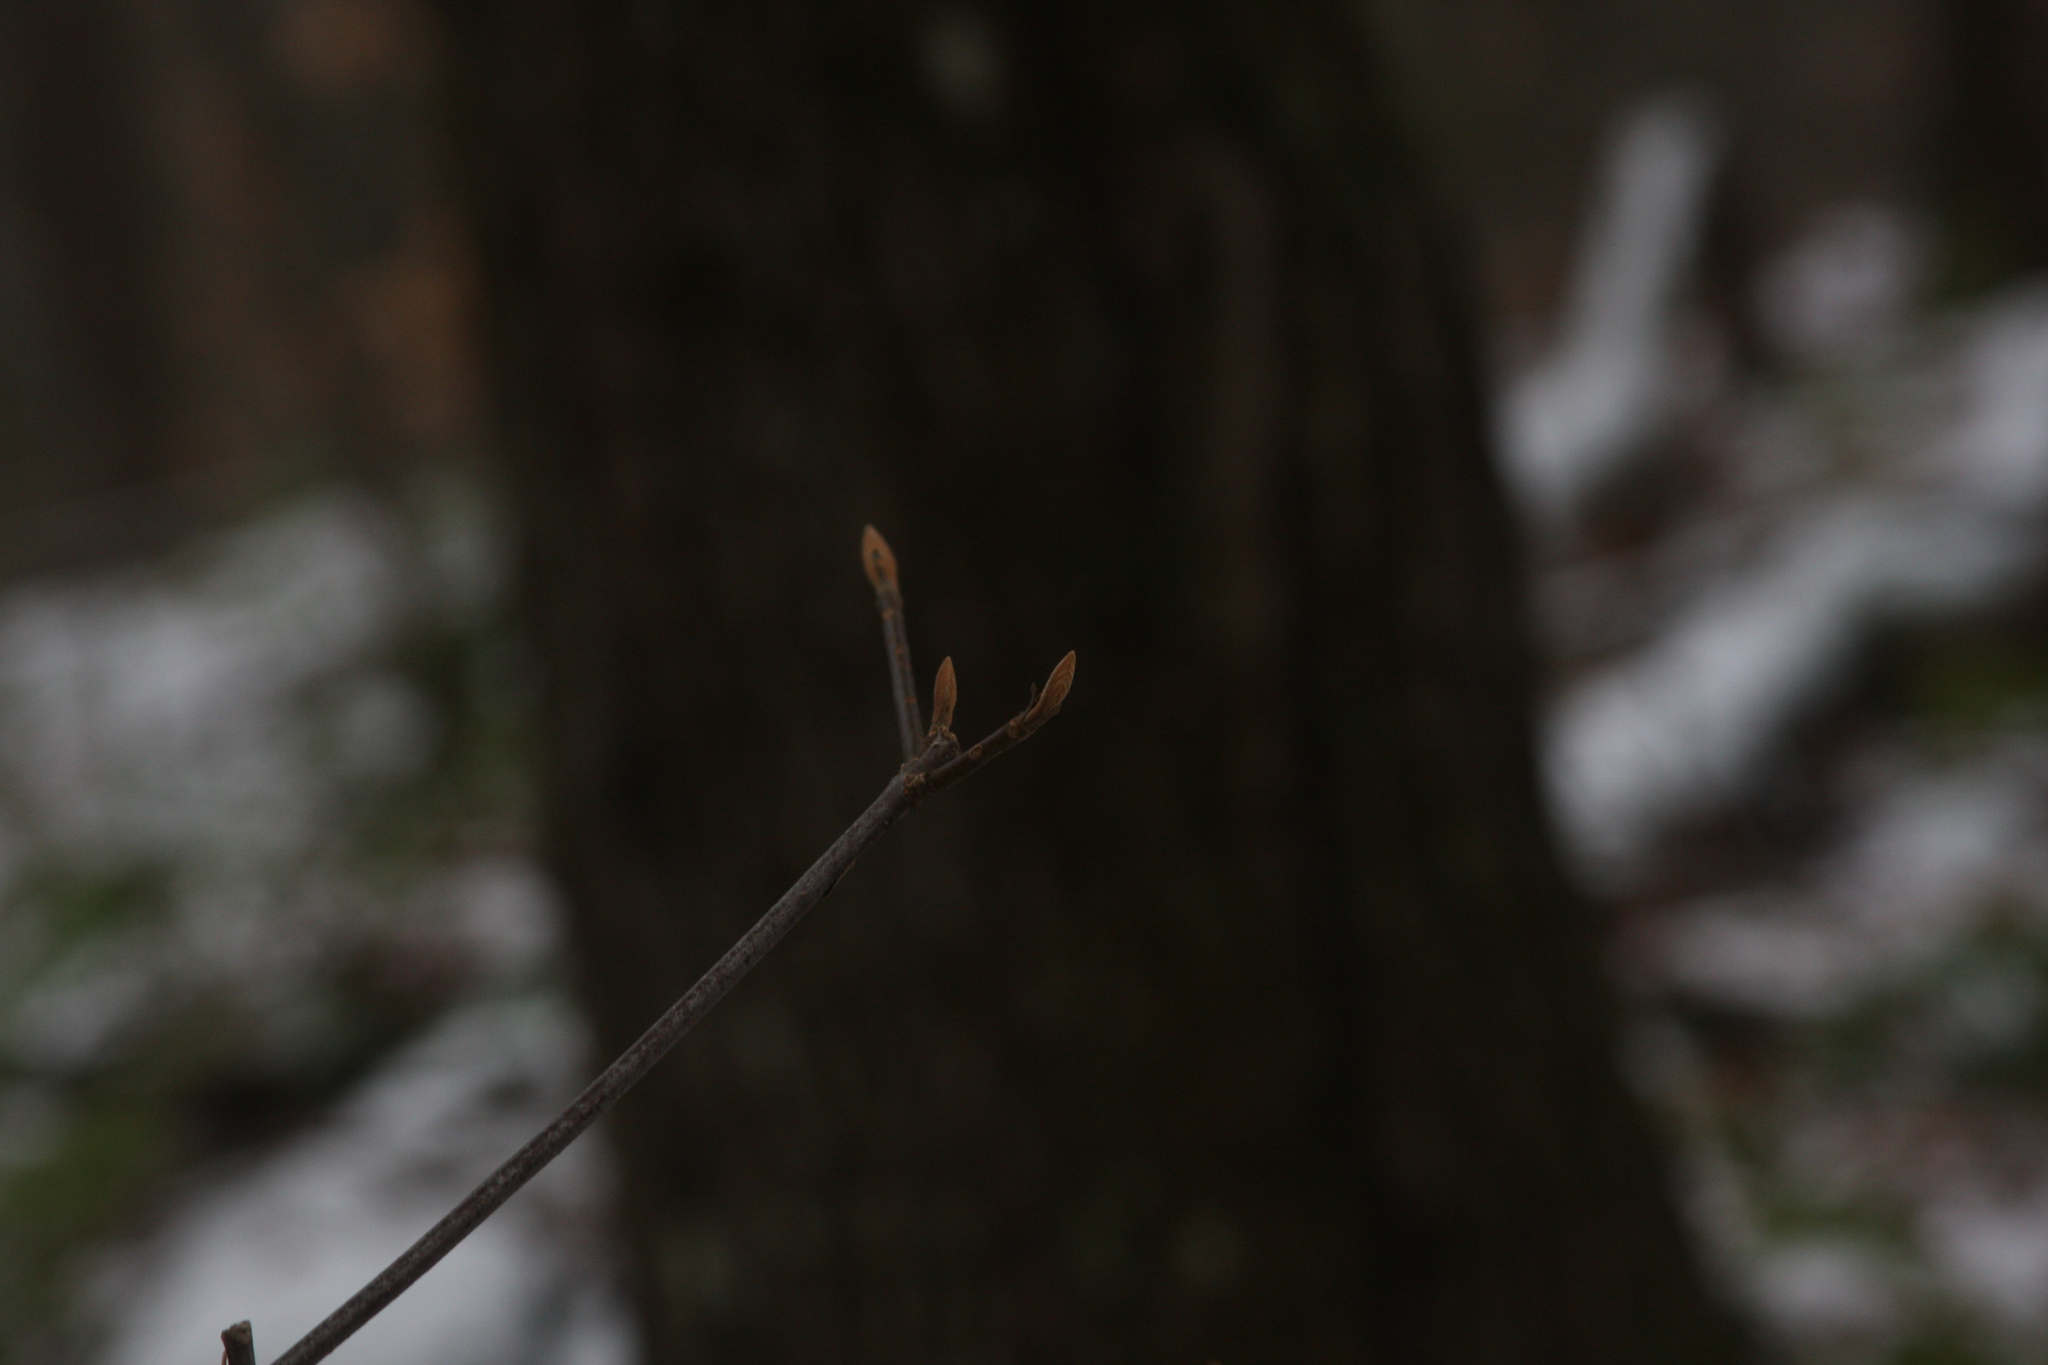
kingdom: Plantae
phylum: Tracheophyta
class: Magnoliopsida
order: Dipsacales
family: Viburnaceae
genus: Viburnum
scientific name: Viburnum lantanoides
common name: Hobblebush
